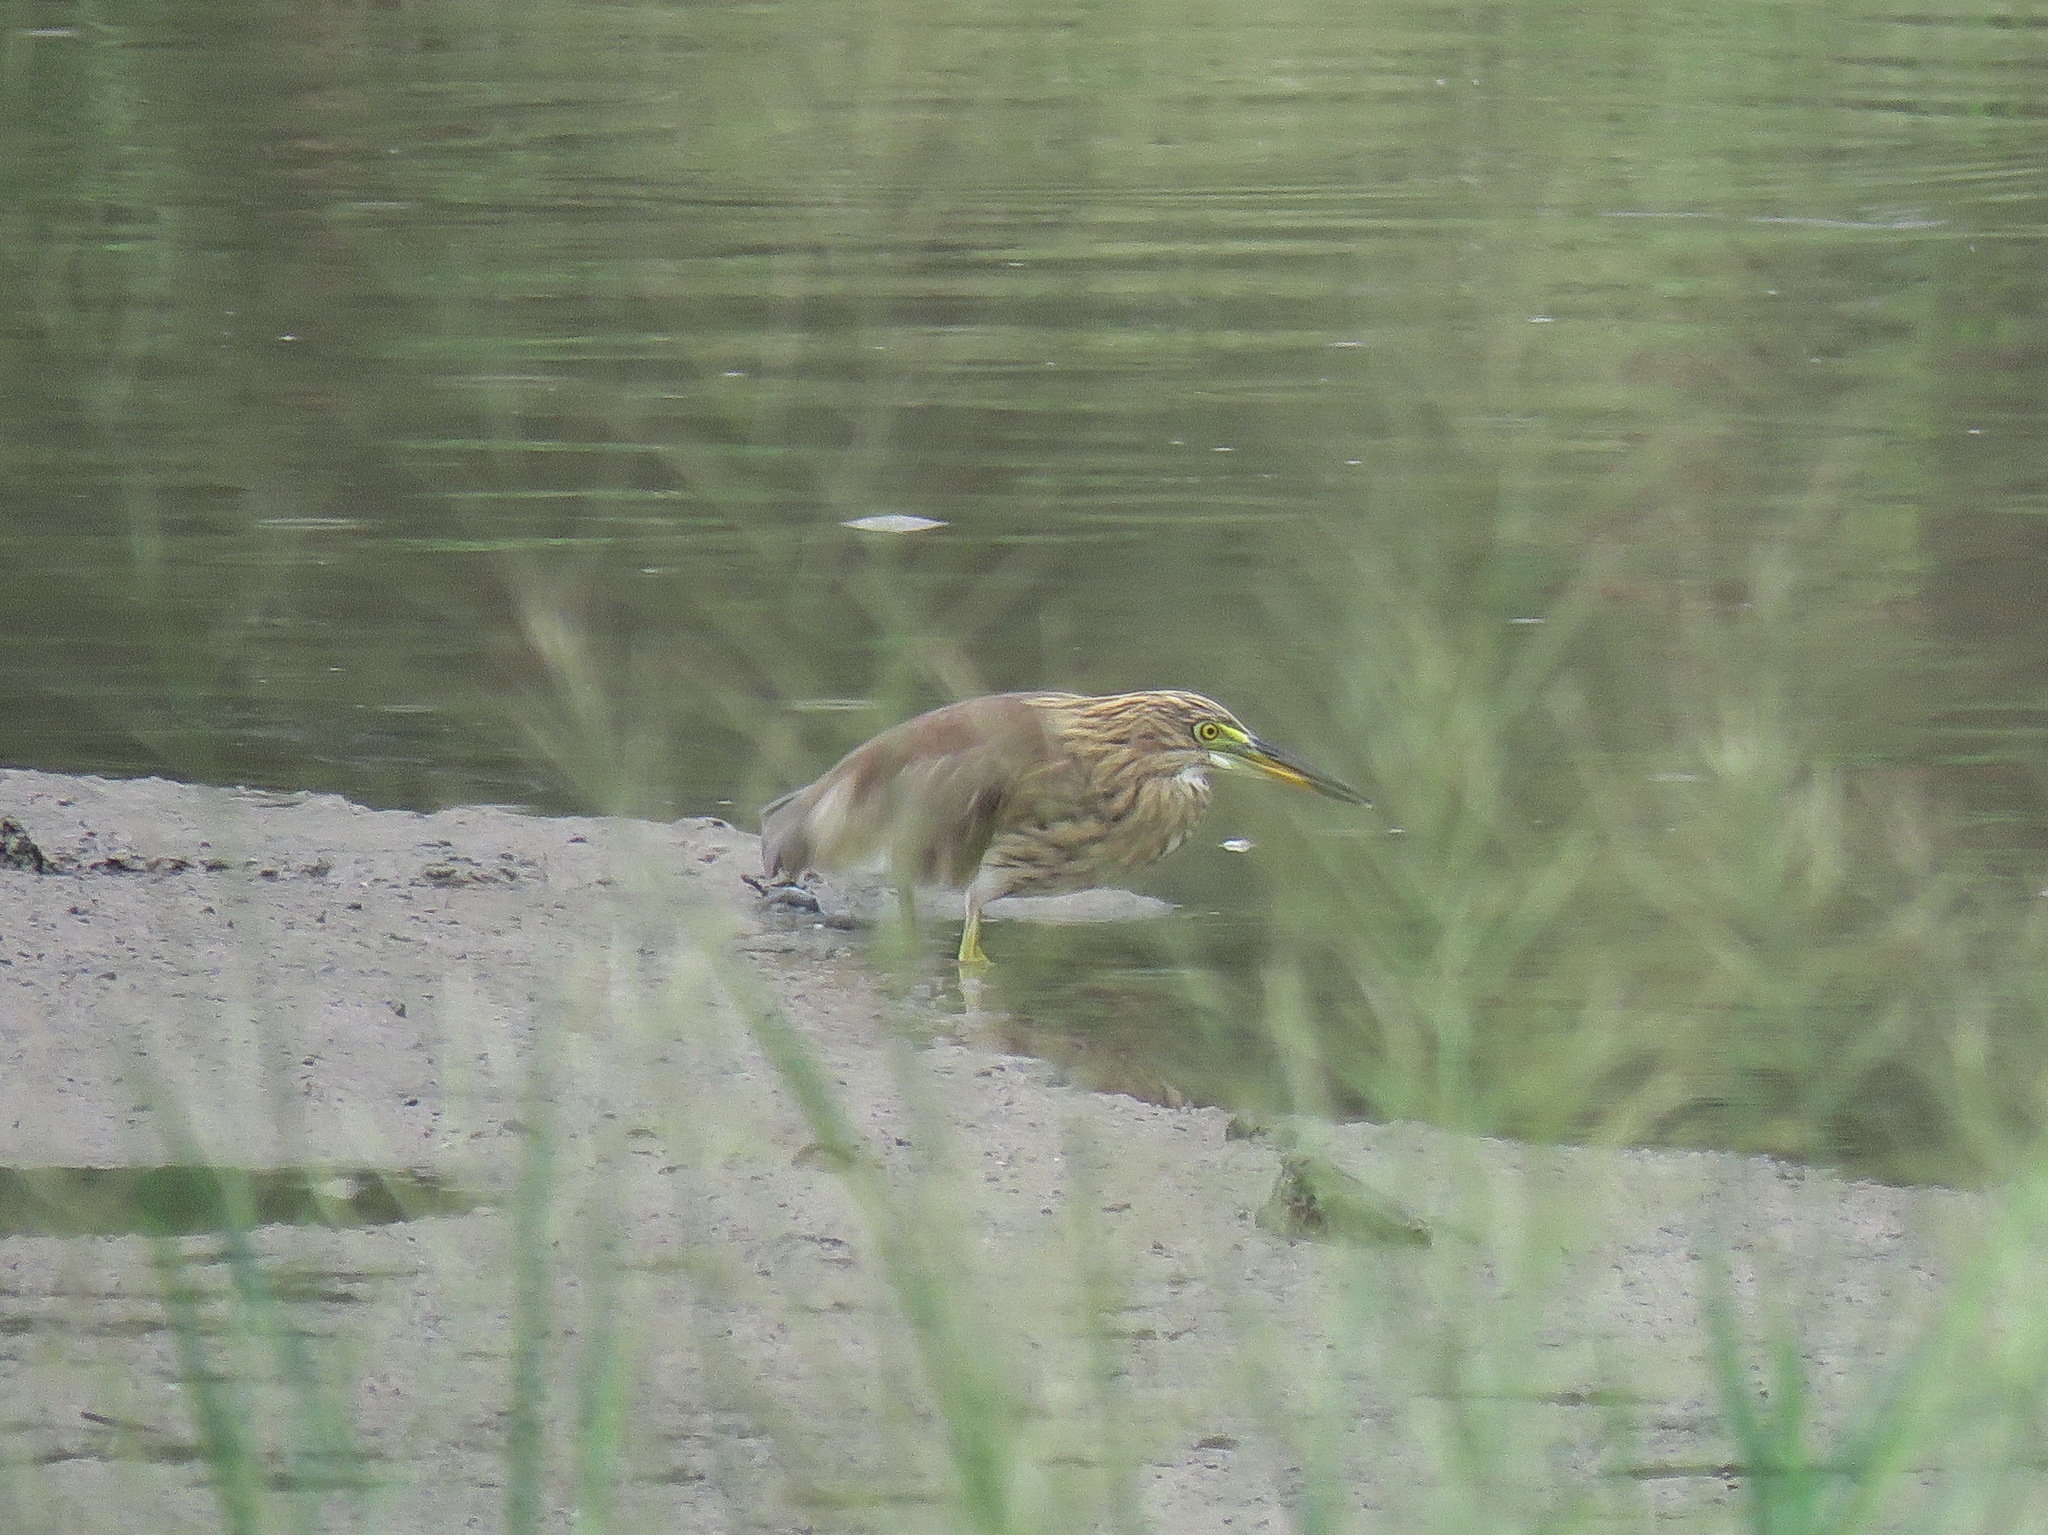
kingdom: Animalia
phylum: Chordata
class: Aves
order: Pelecaniformes
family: Ardeidae
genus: Ardeola
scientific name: Ardeola bacchus
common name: Chinese pond heron
